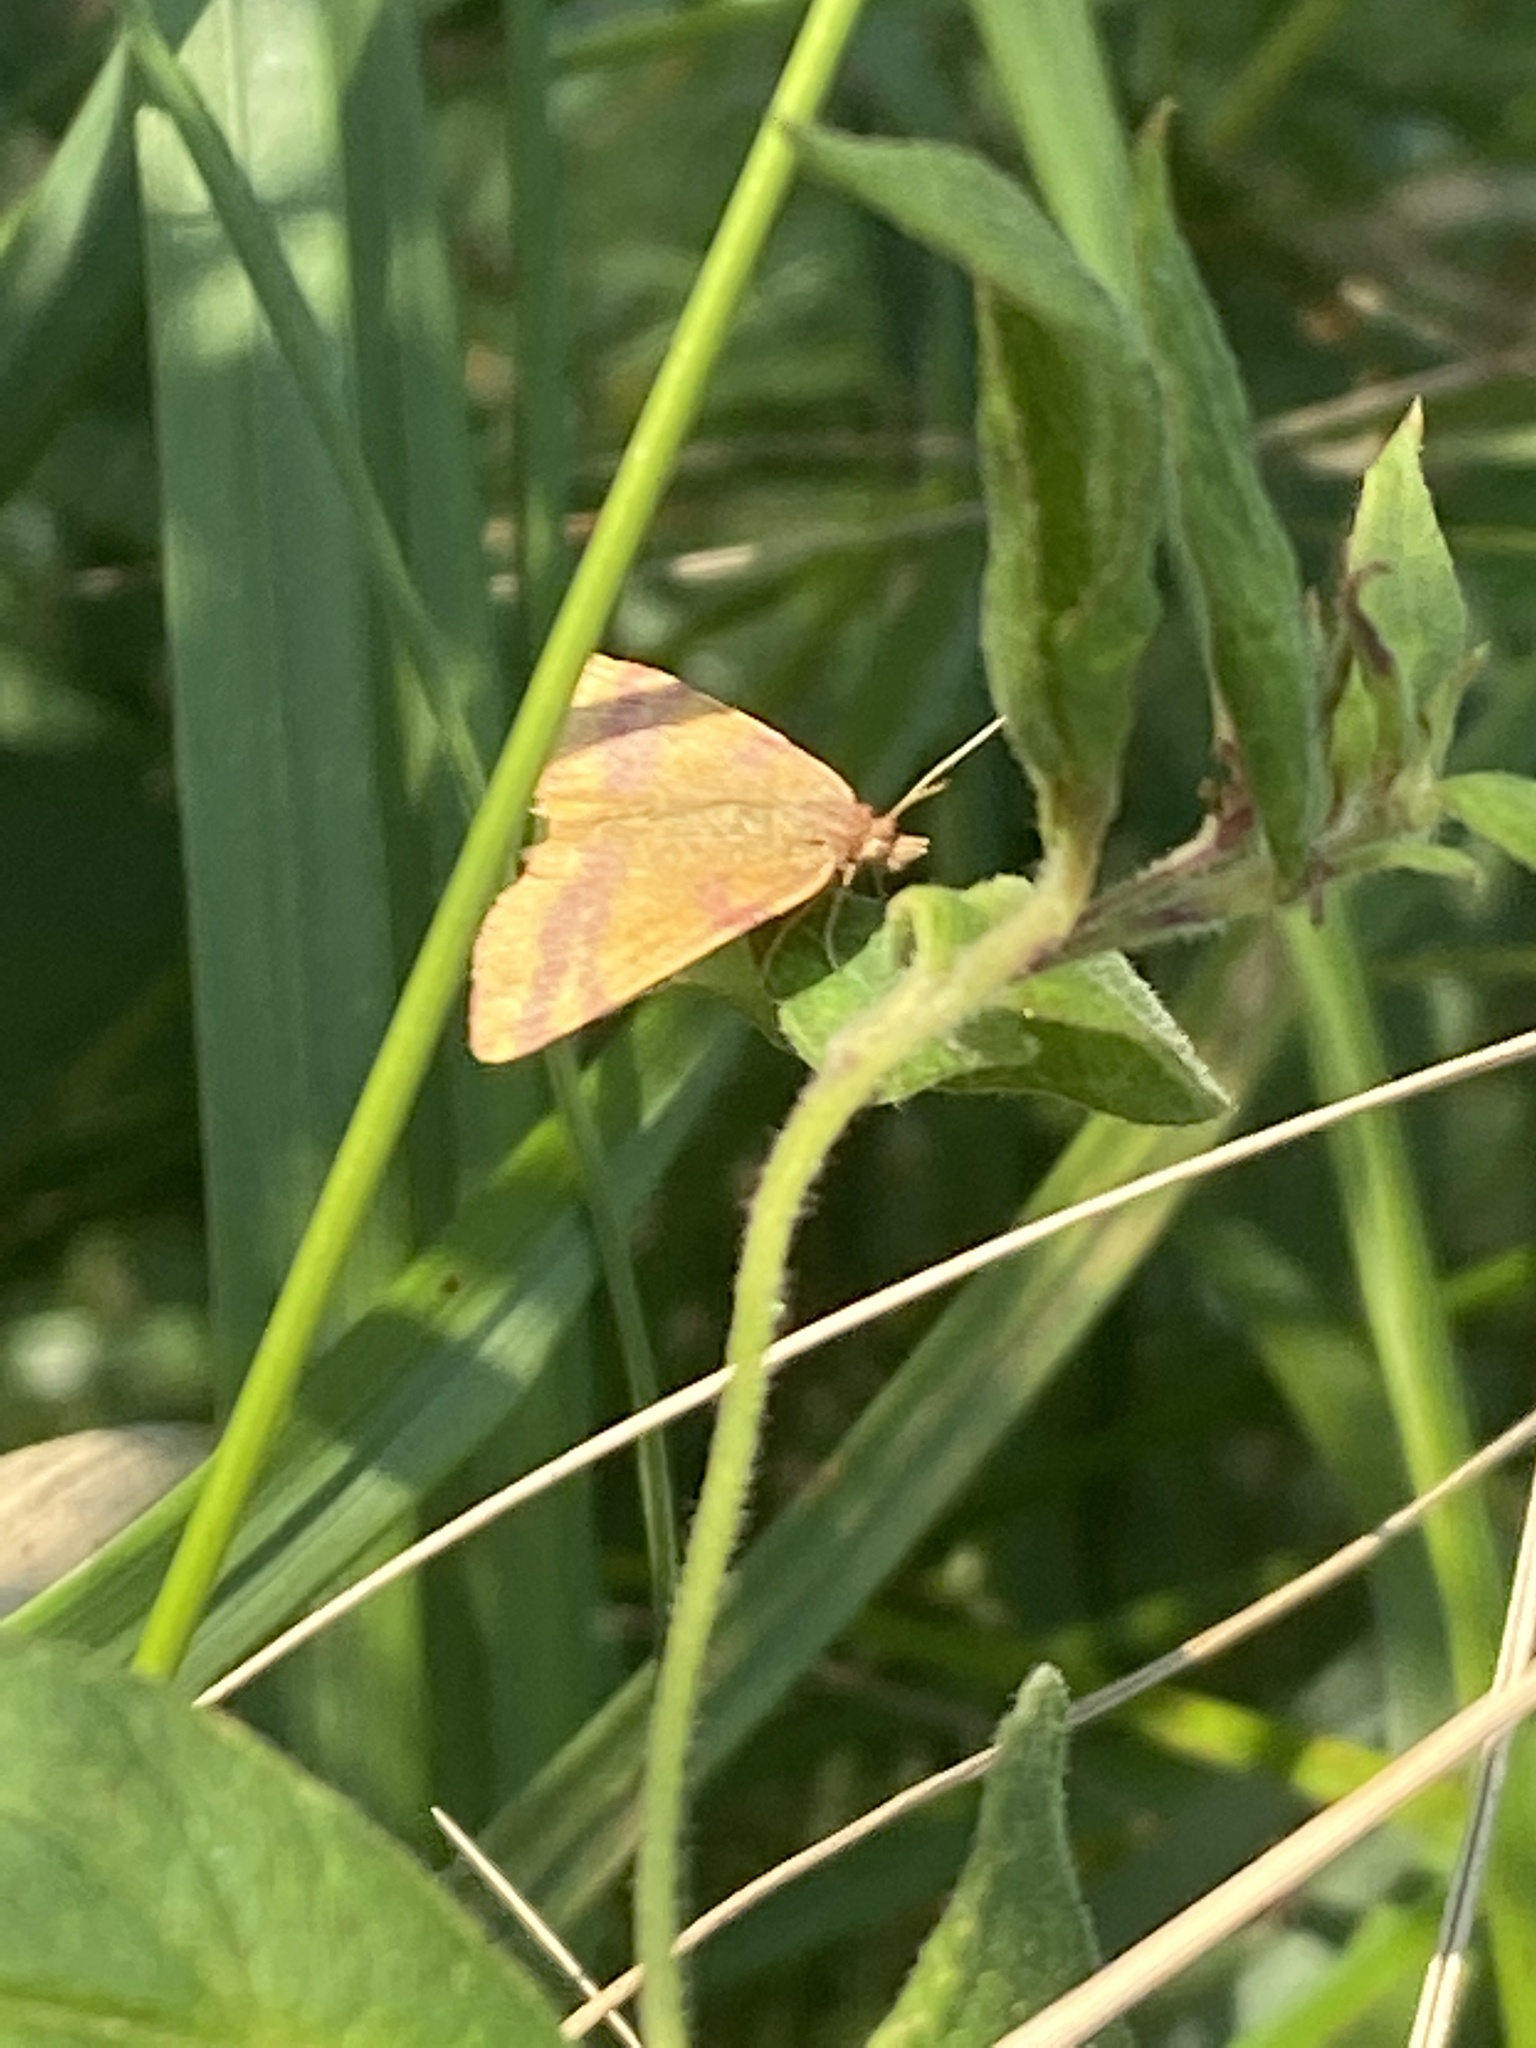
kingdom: Animalia
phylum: Arthropoda
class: Insecta
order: Lepidoptera
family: Geometridae
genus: Lythria
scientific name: Lythria cruentaria
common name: Purple-barred yellow
